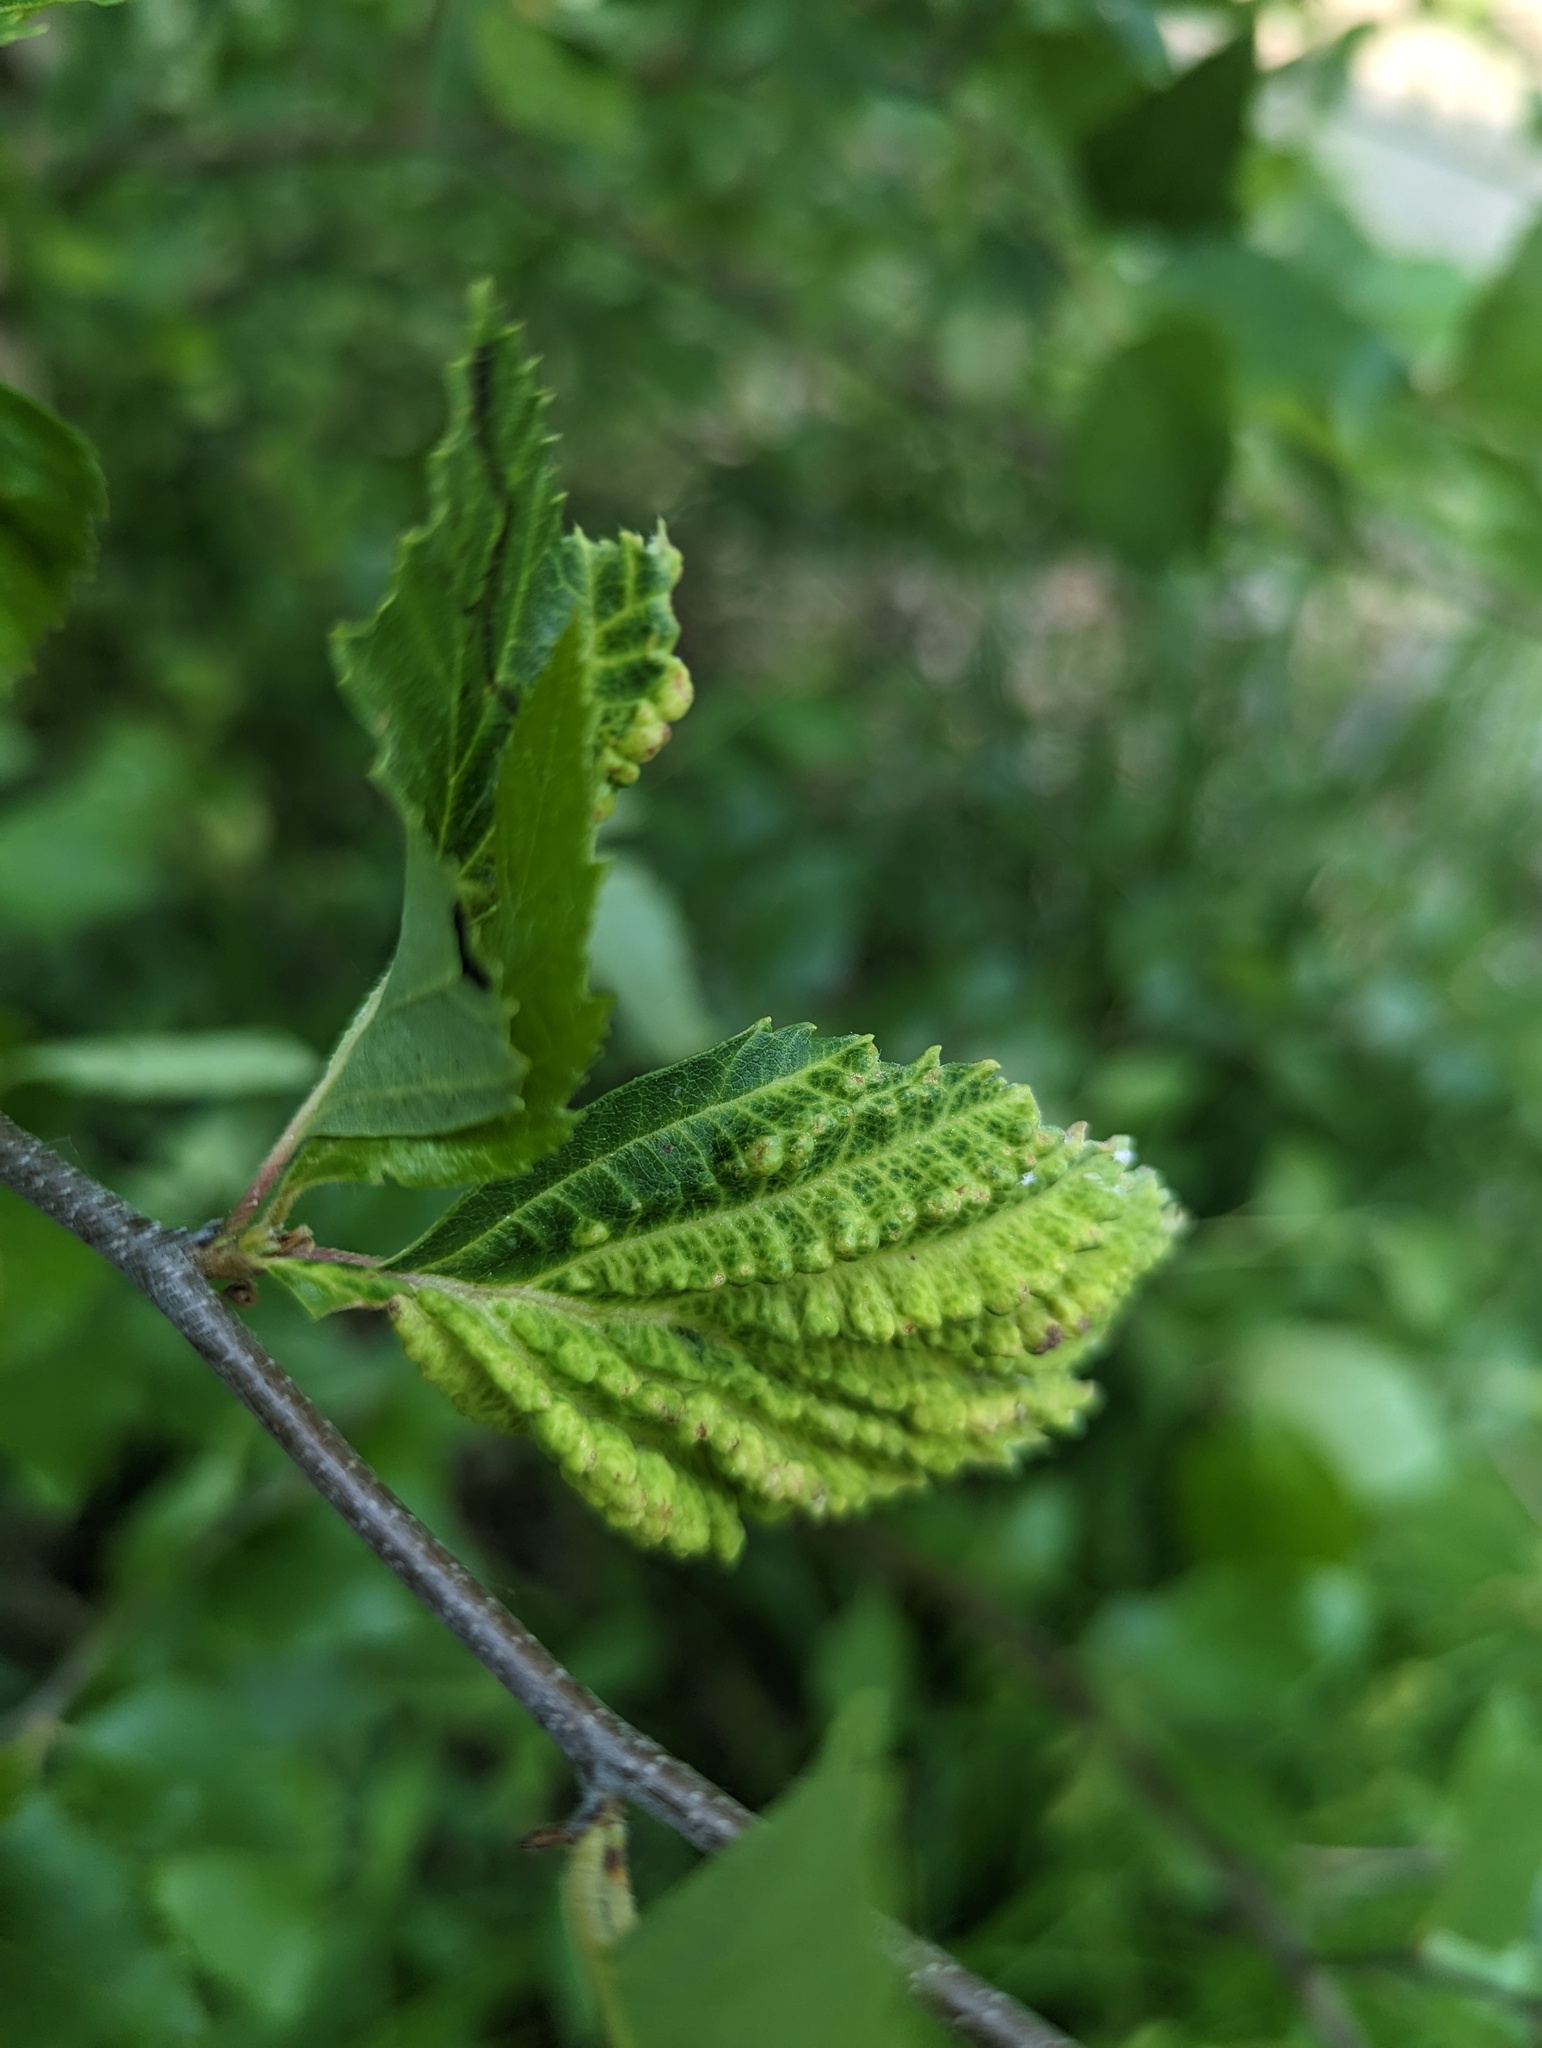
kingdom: Animalia
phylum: Arthropoda
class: Insecta
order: Hemiptera
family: Aphididae
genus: Hamamelistes
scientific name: Hamamelistes spinosus
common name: Witch hazel gall aphid
